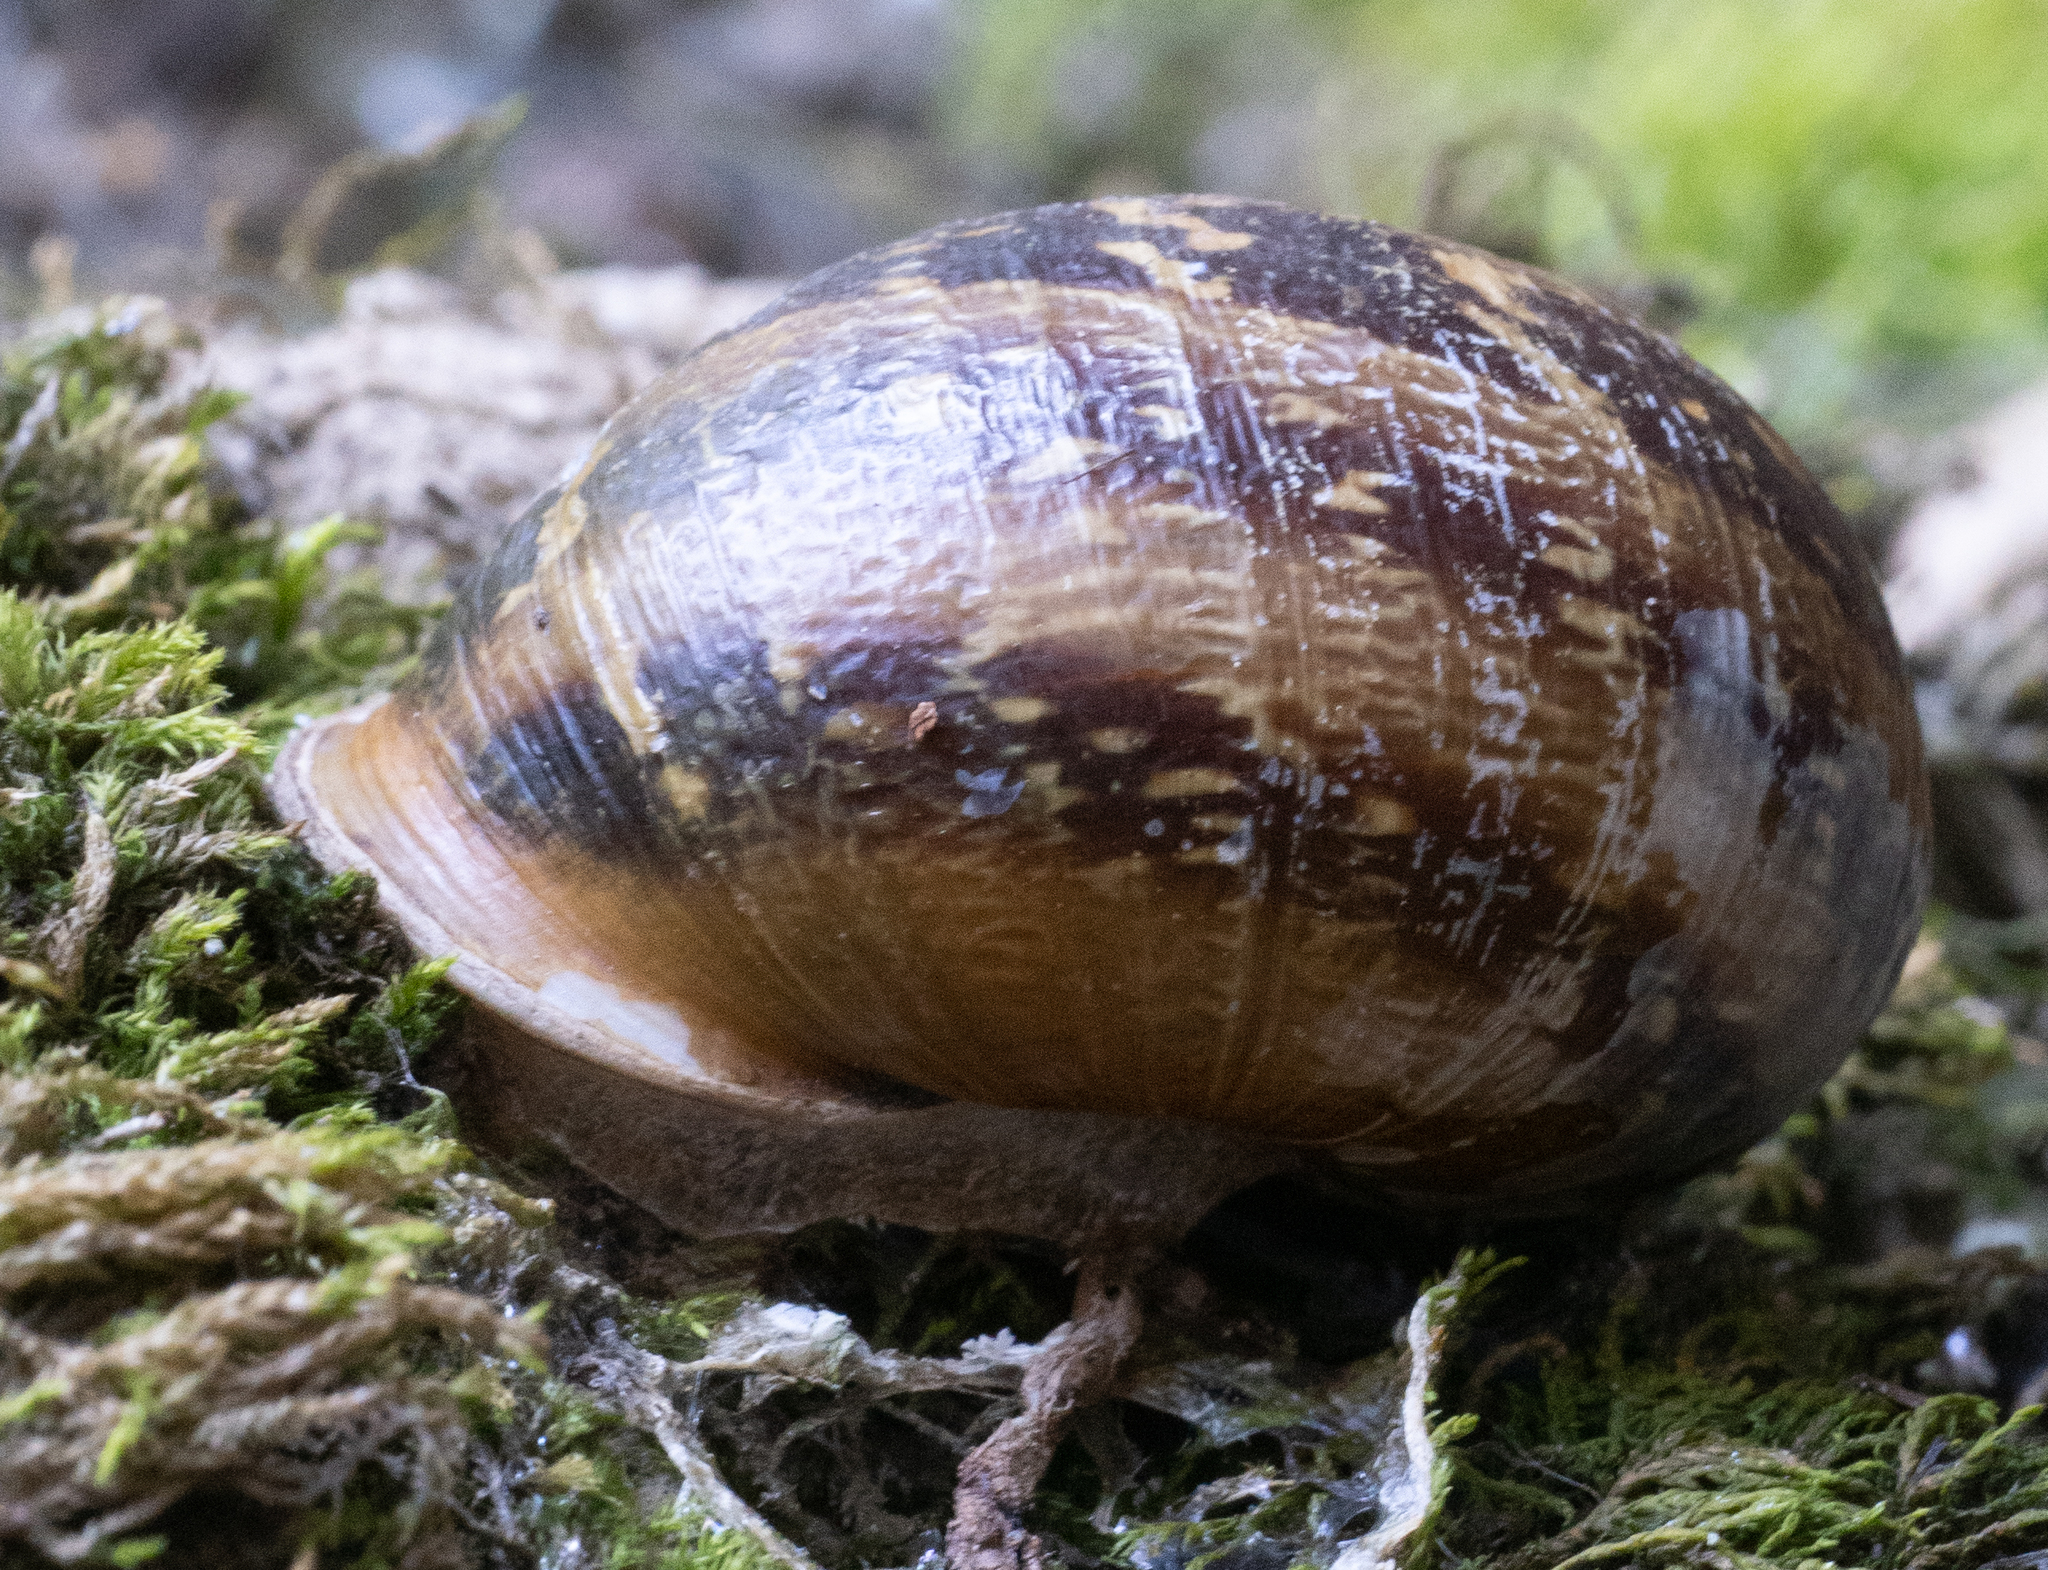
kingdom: Animalia
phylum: Mollusca
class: Gastropoda
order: Stylommatophora
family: Helicidae
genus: Cornu
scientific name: Cornu aspersum
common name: Brown garden snail
